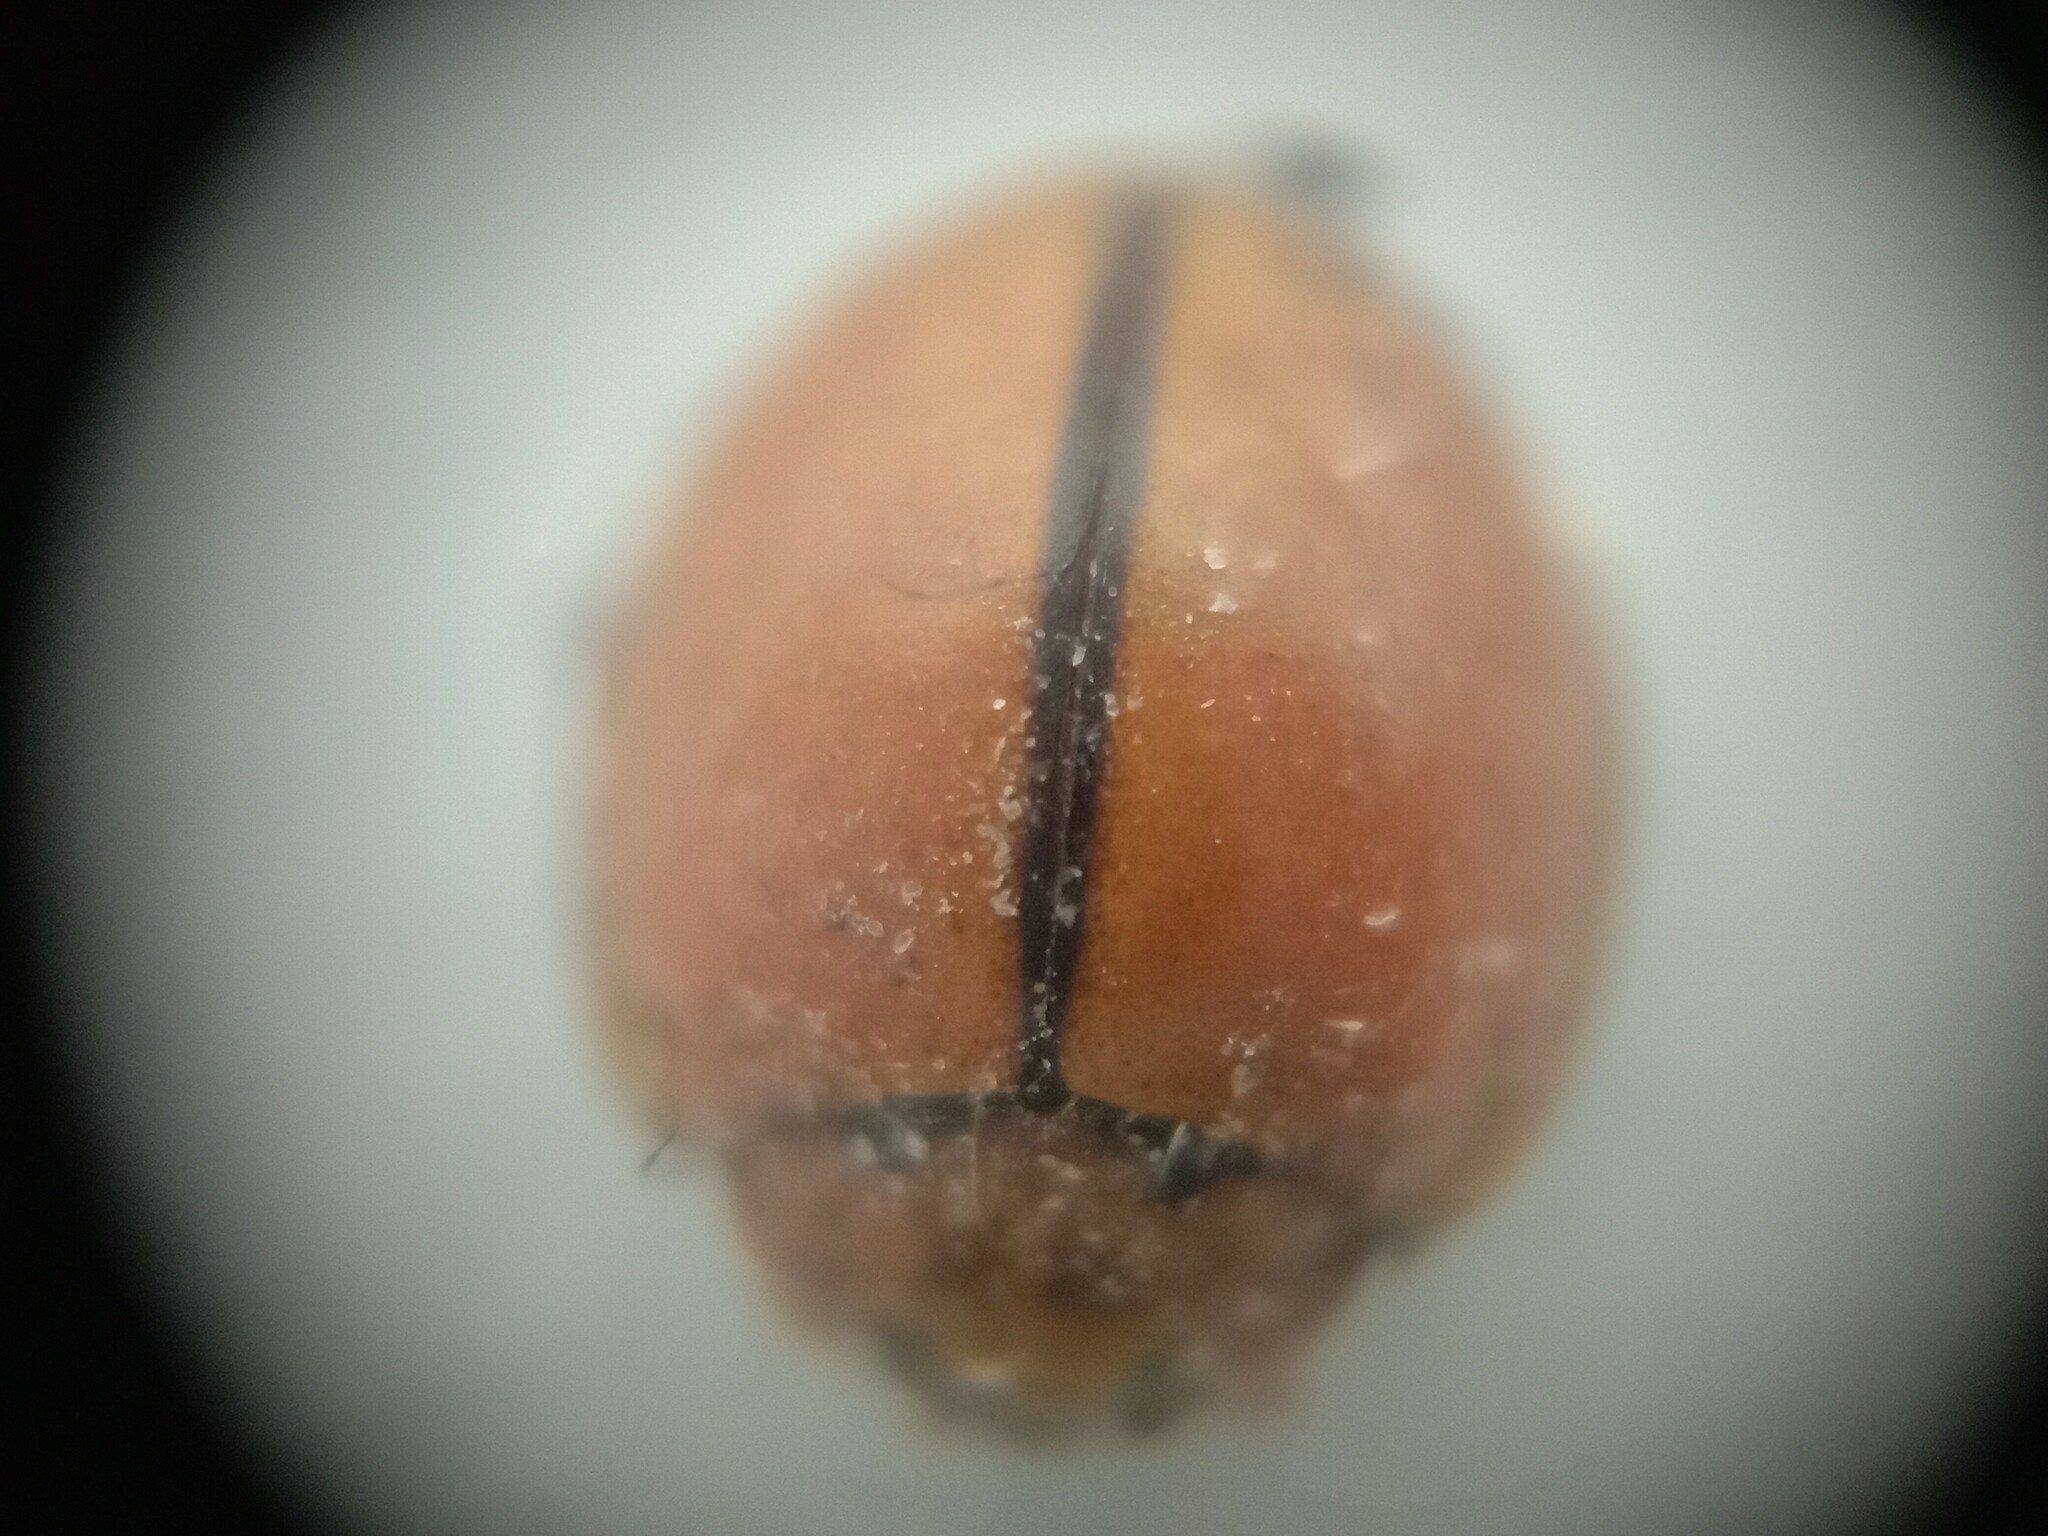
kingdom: Animalia
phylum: Arthropoda
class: Insecta
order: Coleoptera
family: Coccinellidae
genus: Micraspis
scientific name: Micraspis discolor
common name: Lady beetle
